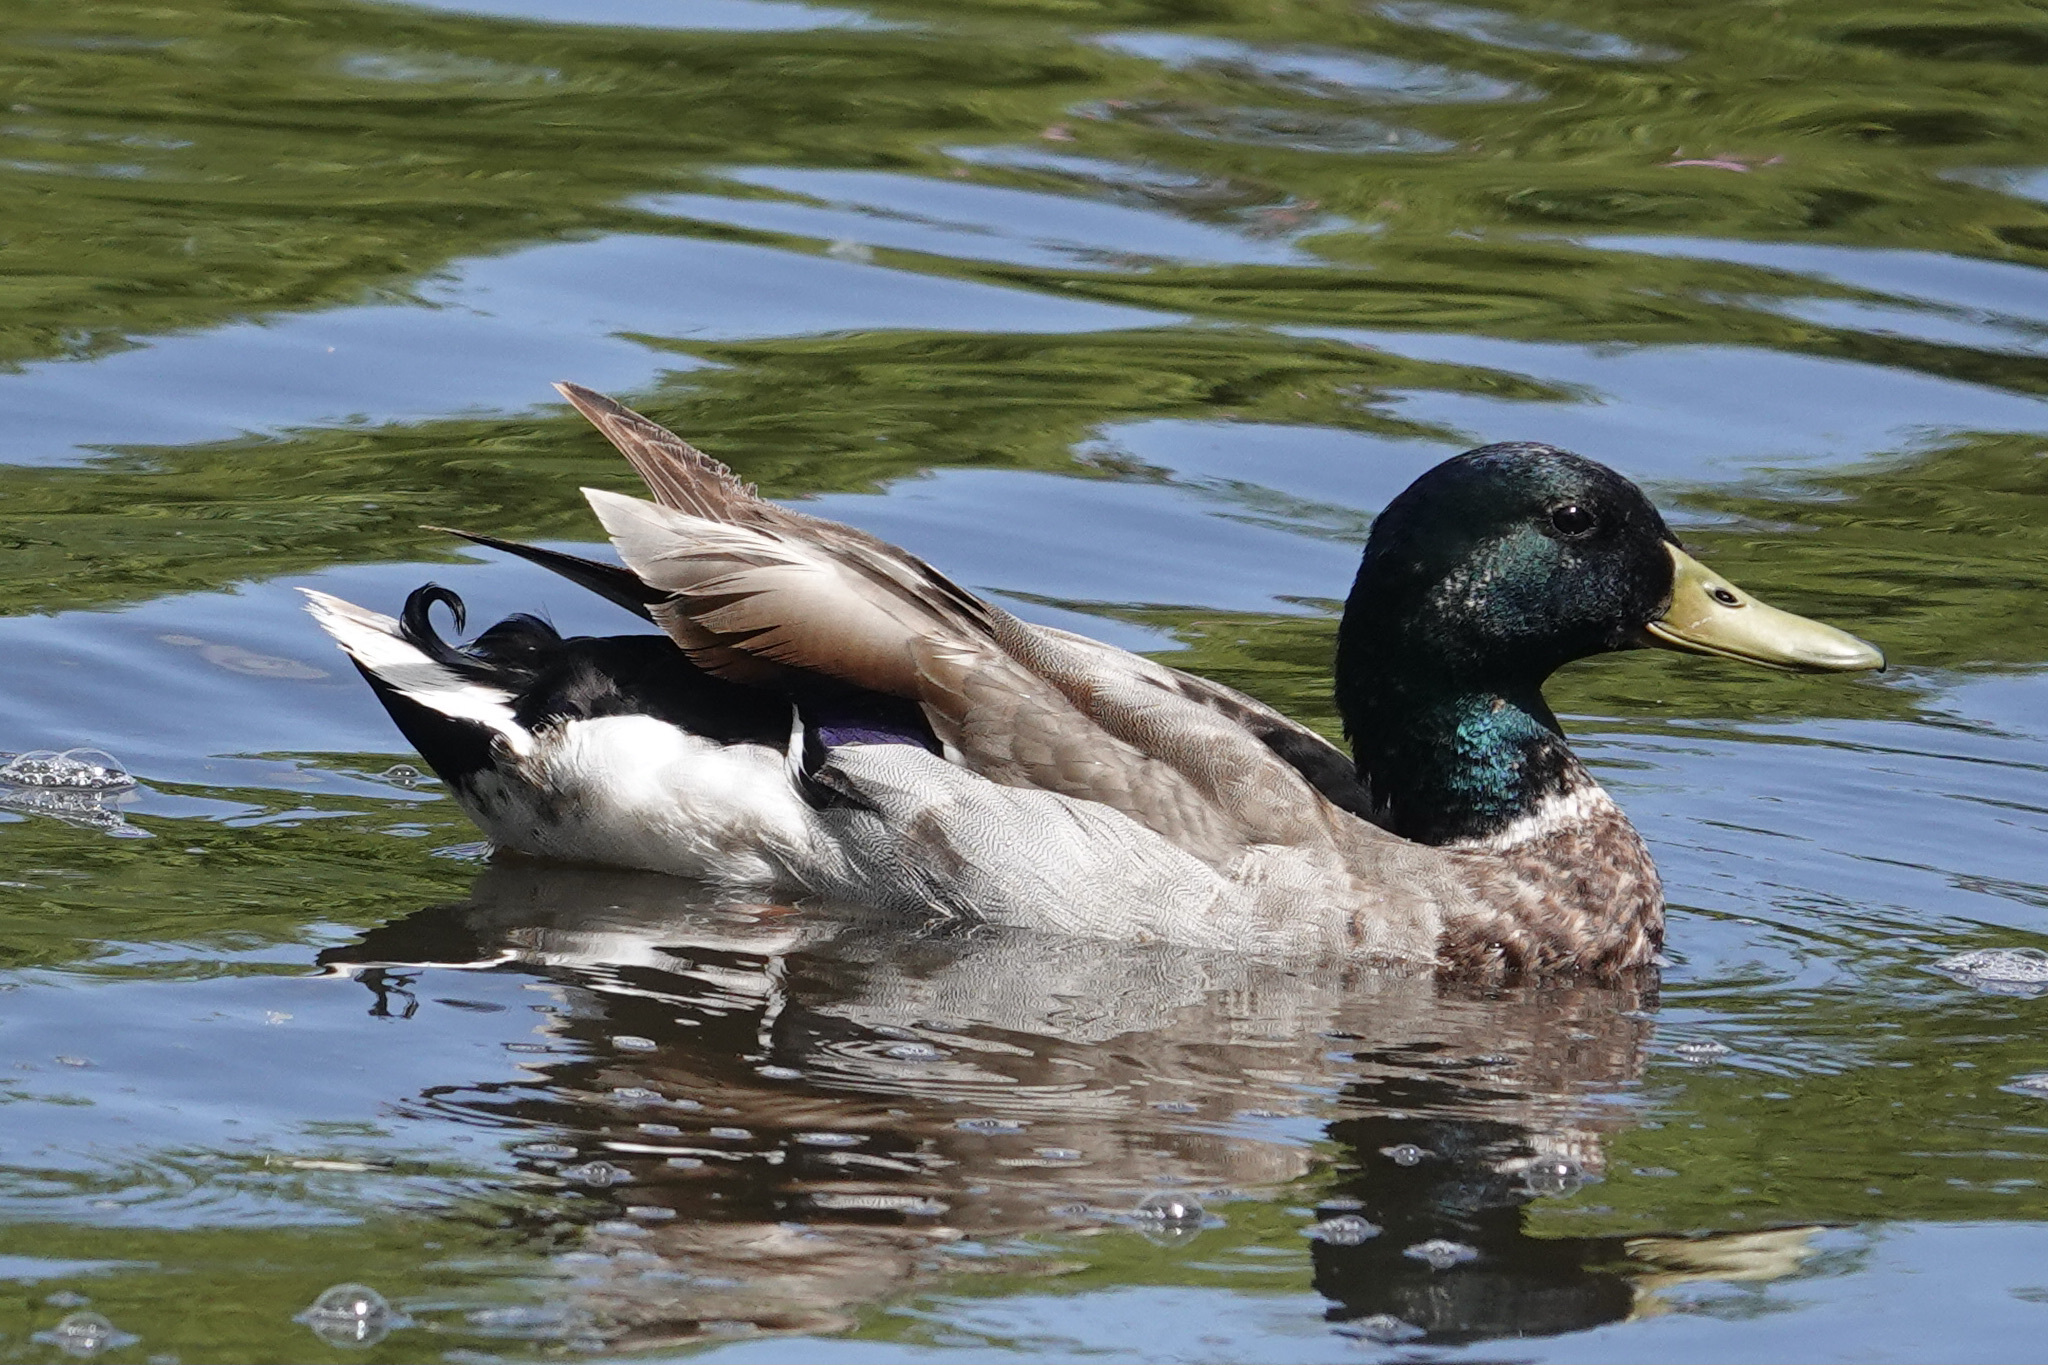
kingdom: Animalia
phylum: Chordata
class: Aves
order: Anseriformes
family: Anatidae
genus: Anas
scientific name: Anas platyrhynchos
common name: Mallard
